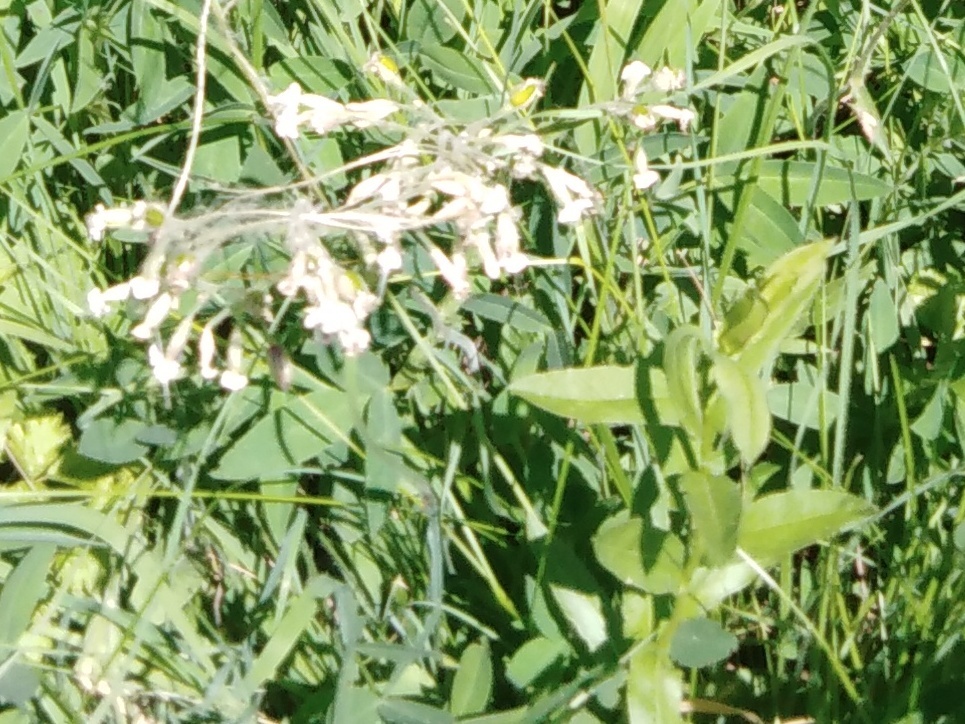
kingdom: Plantae
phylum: Tracheophyta
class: Magnoliopsida
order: Caryophyllales
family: Caryophyllaceae
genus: Silene
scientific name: Silene nutans
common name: Nottingham catchfly
